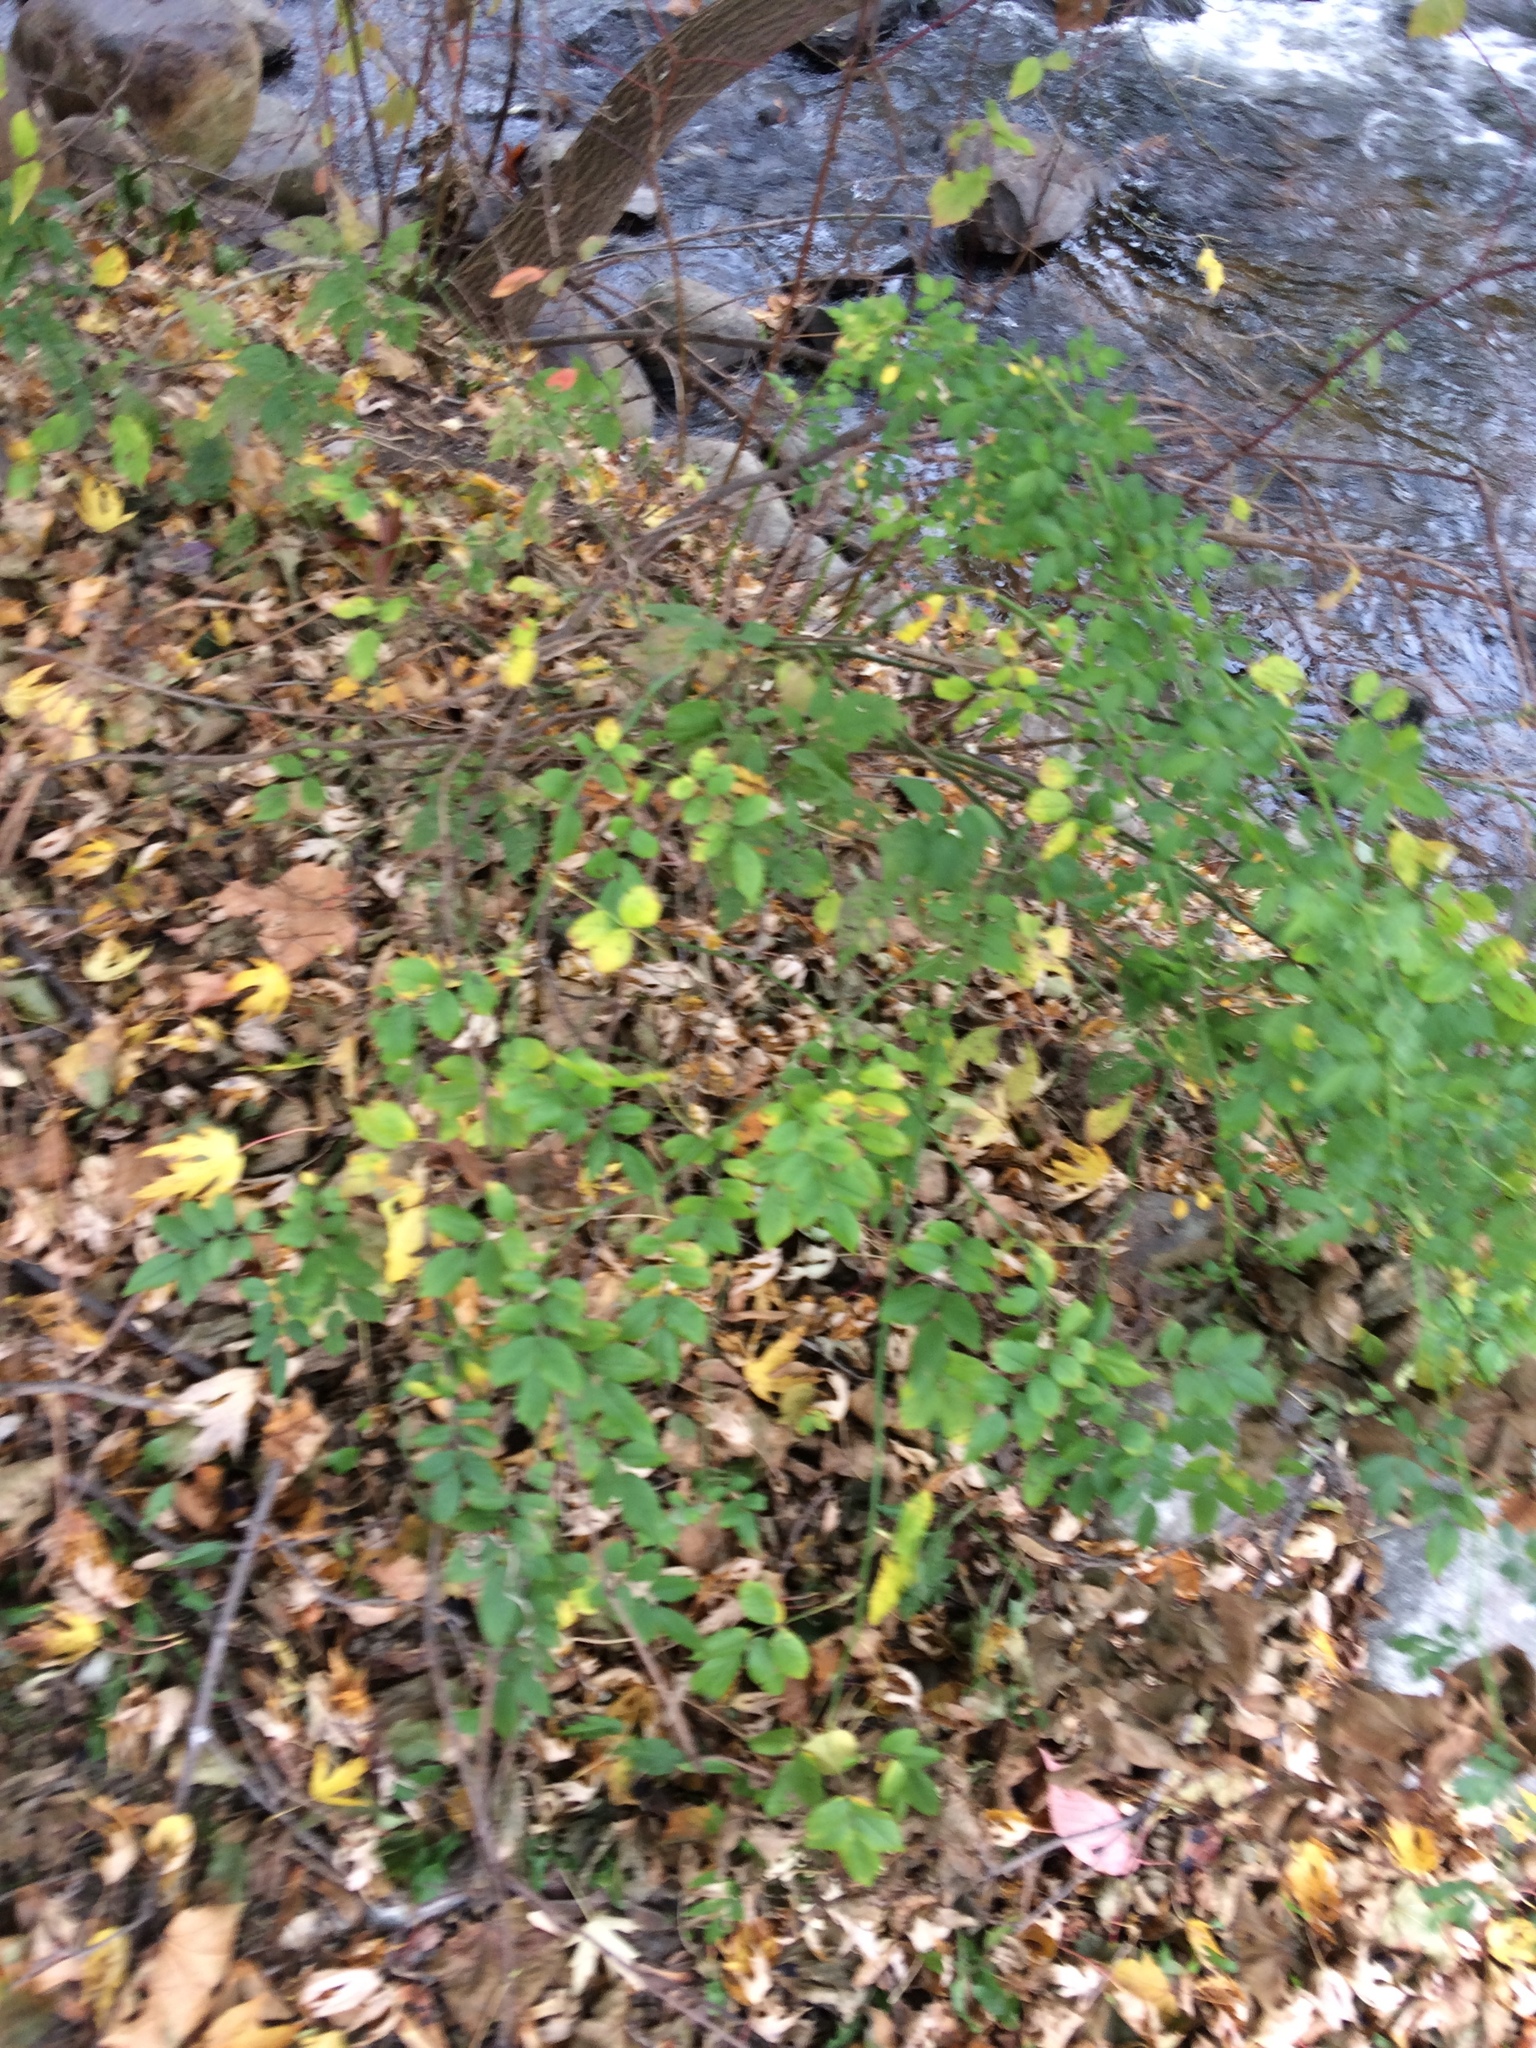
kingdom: Plantae
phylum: Tracheophyta
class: Magnoliopsida
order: Rosales
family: Rosaceae
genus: Rosa
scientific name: Rosa multiflora
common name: Multiflora rose
